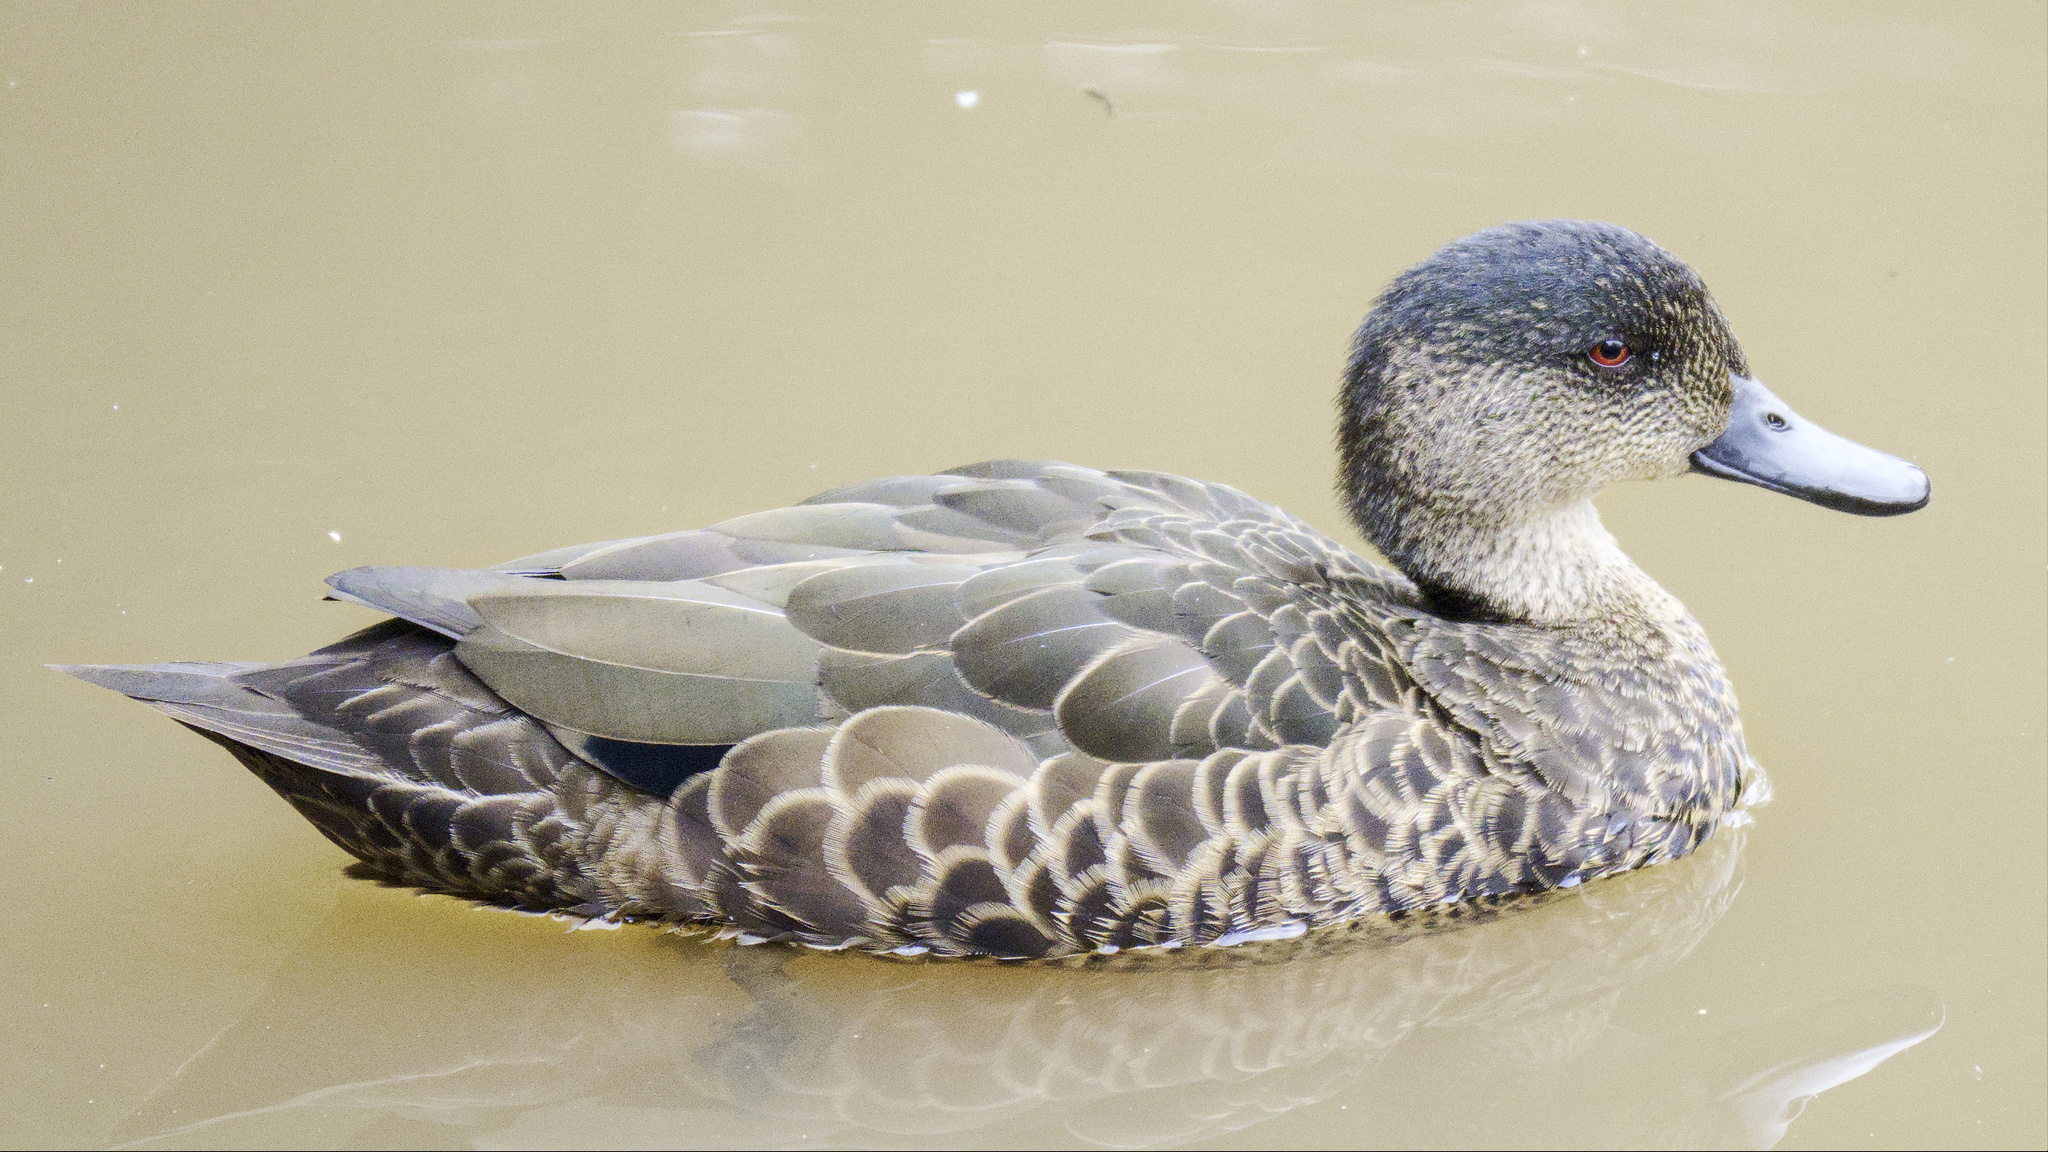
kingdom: Animalia
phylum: Chordata
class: Aves
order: Anseriformes
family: Anatidae
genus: Anas
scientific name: Anas castanea
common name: Chestnut teal
